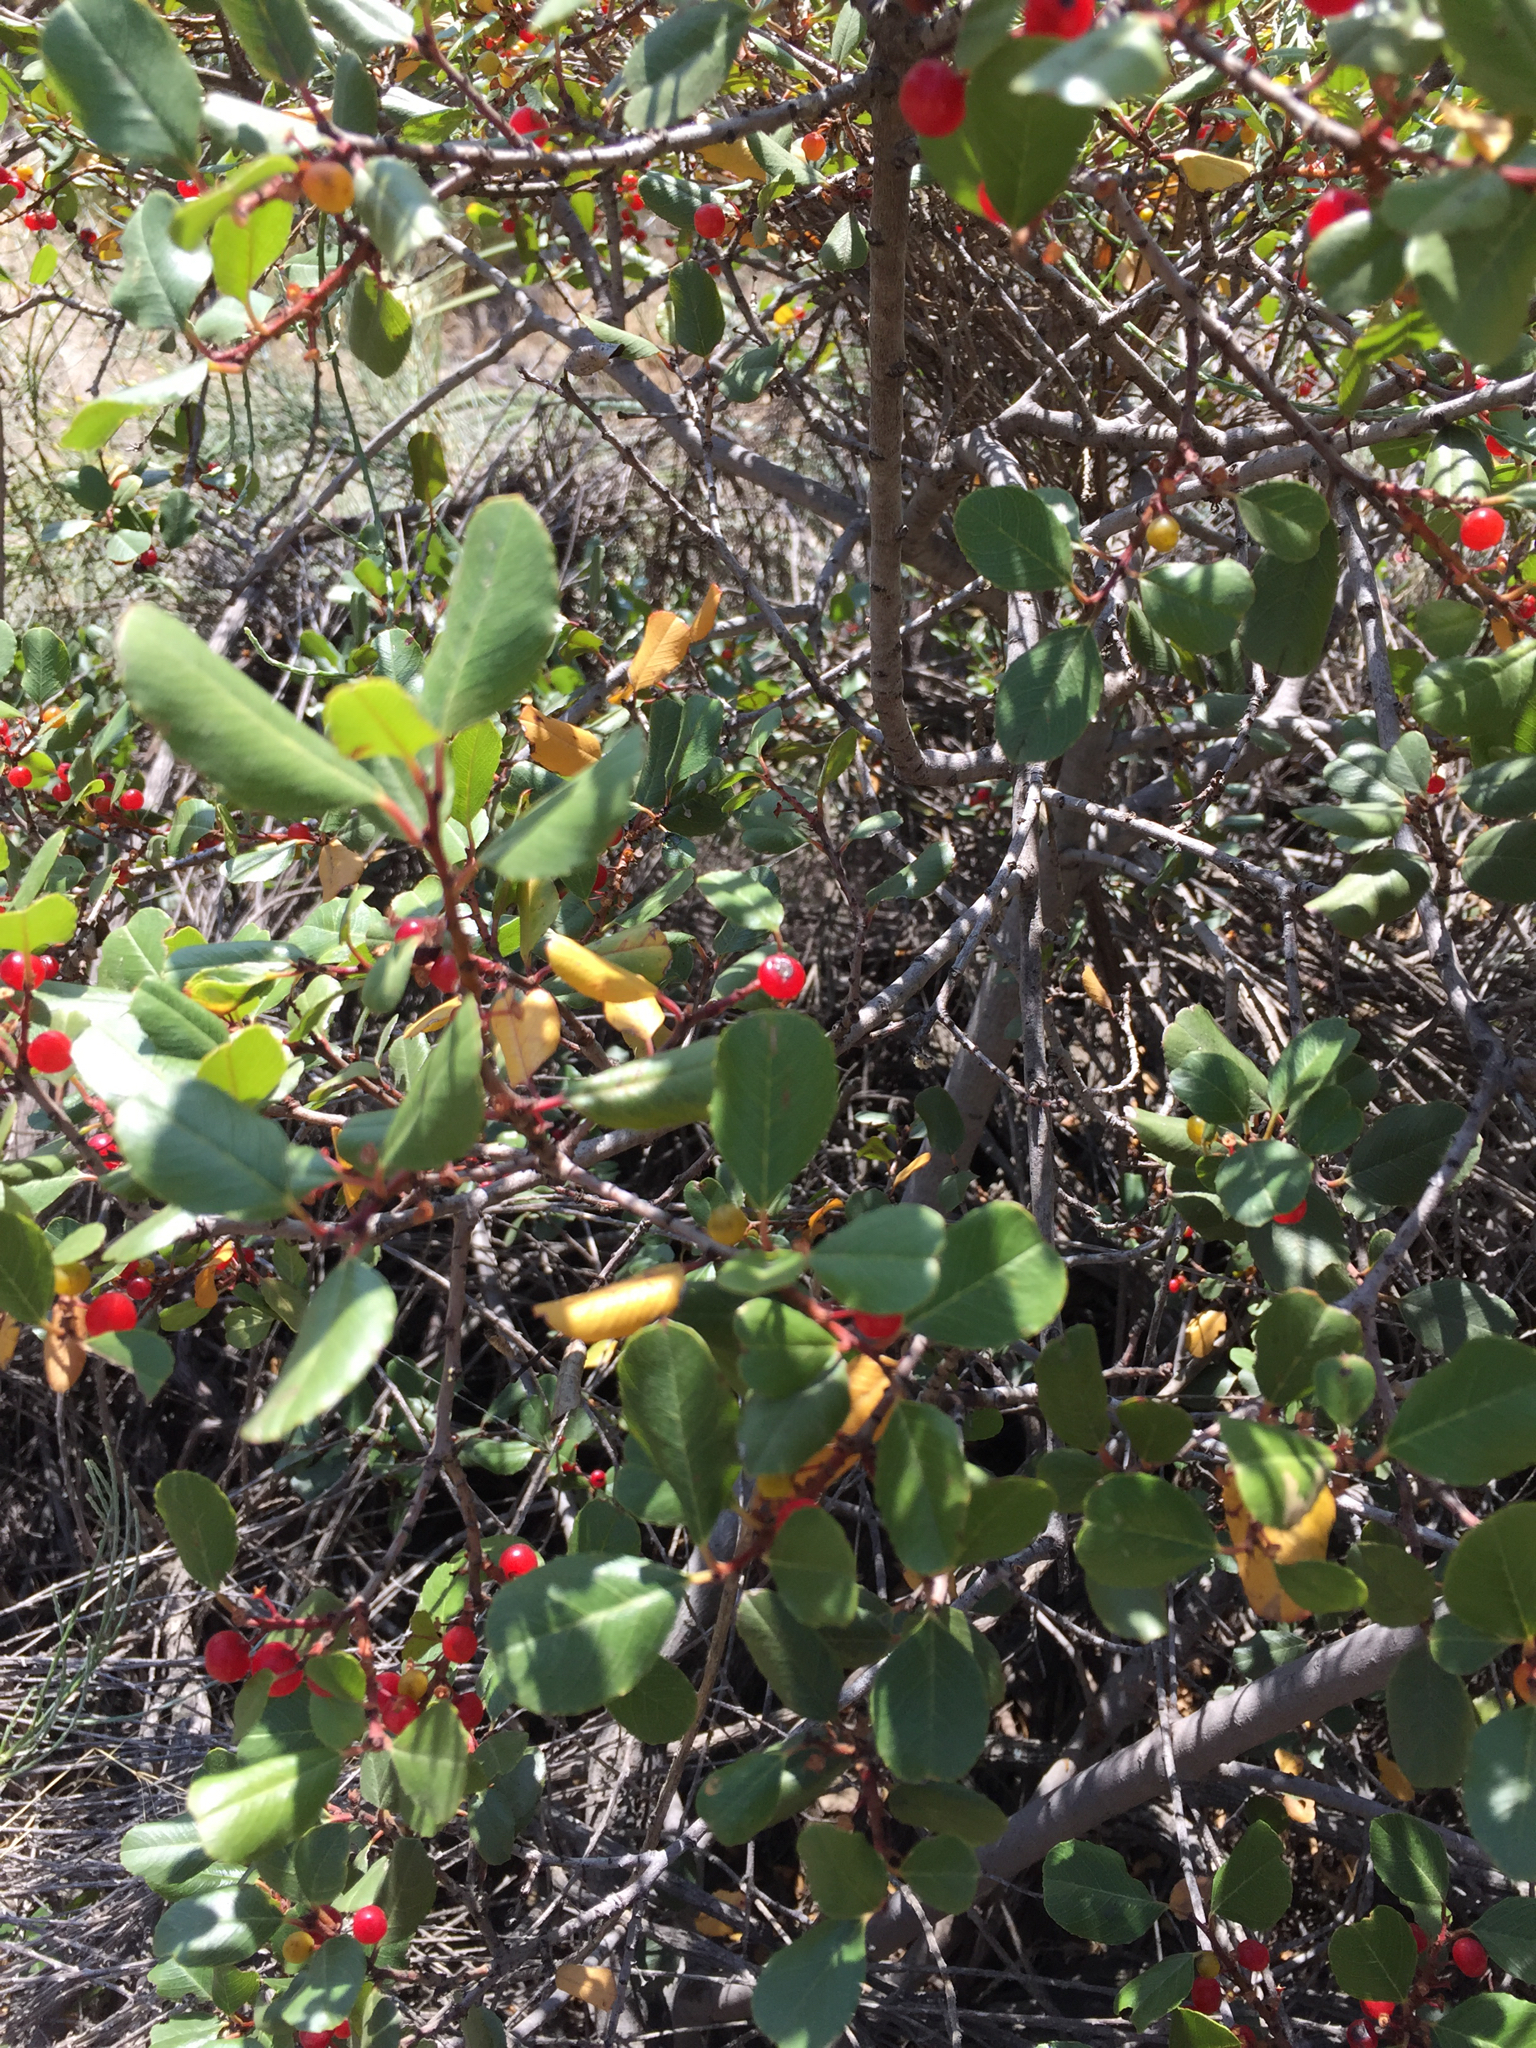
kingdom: Plantae
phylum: Tracheophyta
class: Magnoliopsida
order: Rosales
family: Rhamnaceae
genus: Endotropis
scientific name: Endotropis crocea
